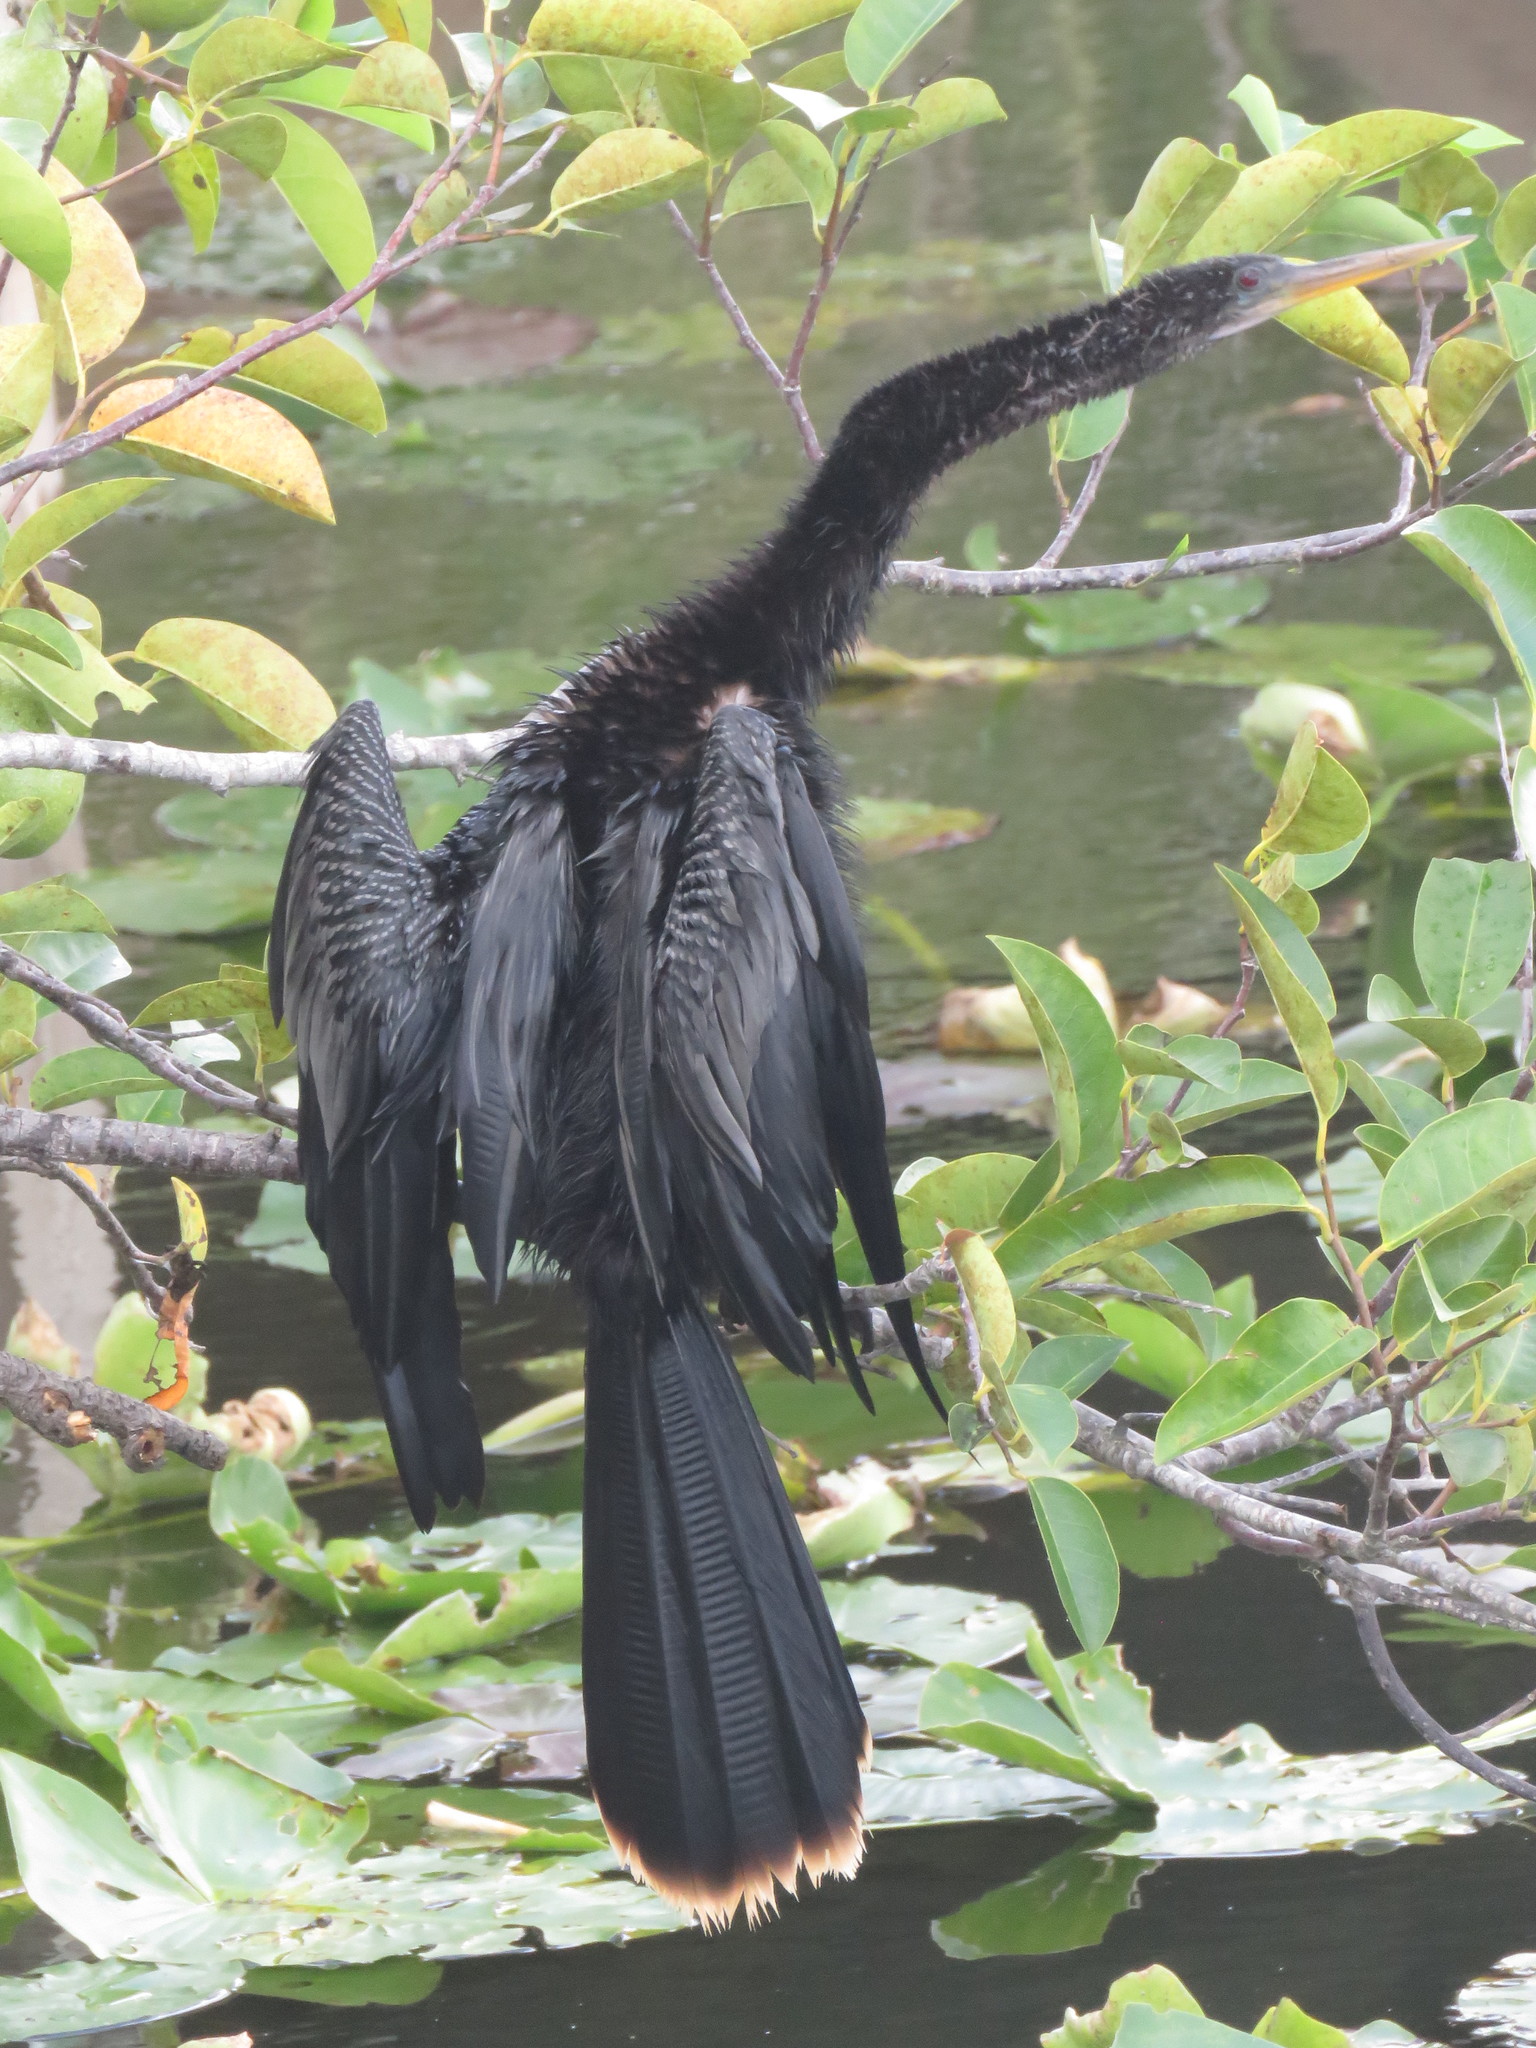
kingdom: Animalia
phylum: Chordata
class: Aves
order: Suliformes
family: Anhingidae
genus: Anhinga
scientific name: Anhinga anhinga
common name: Anhinga
